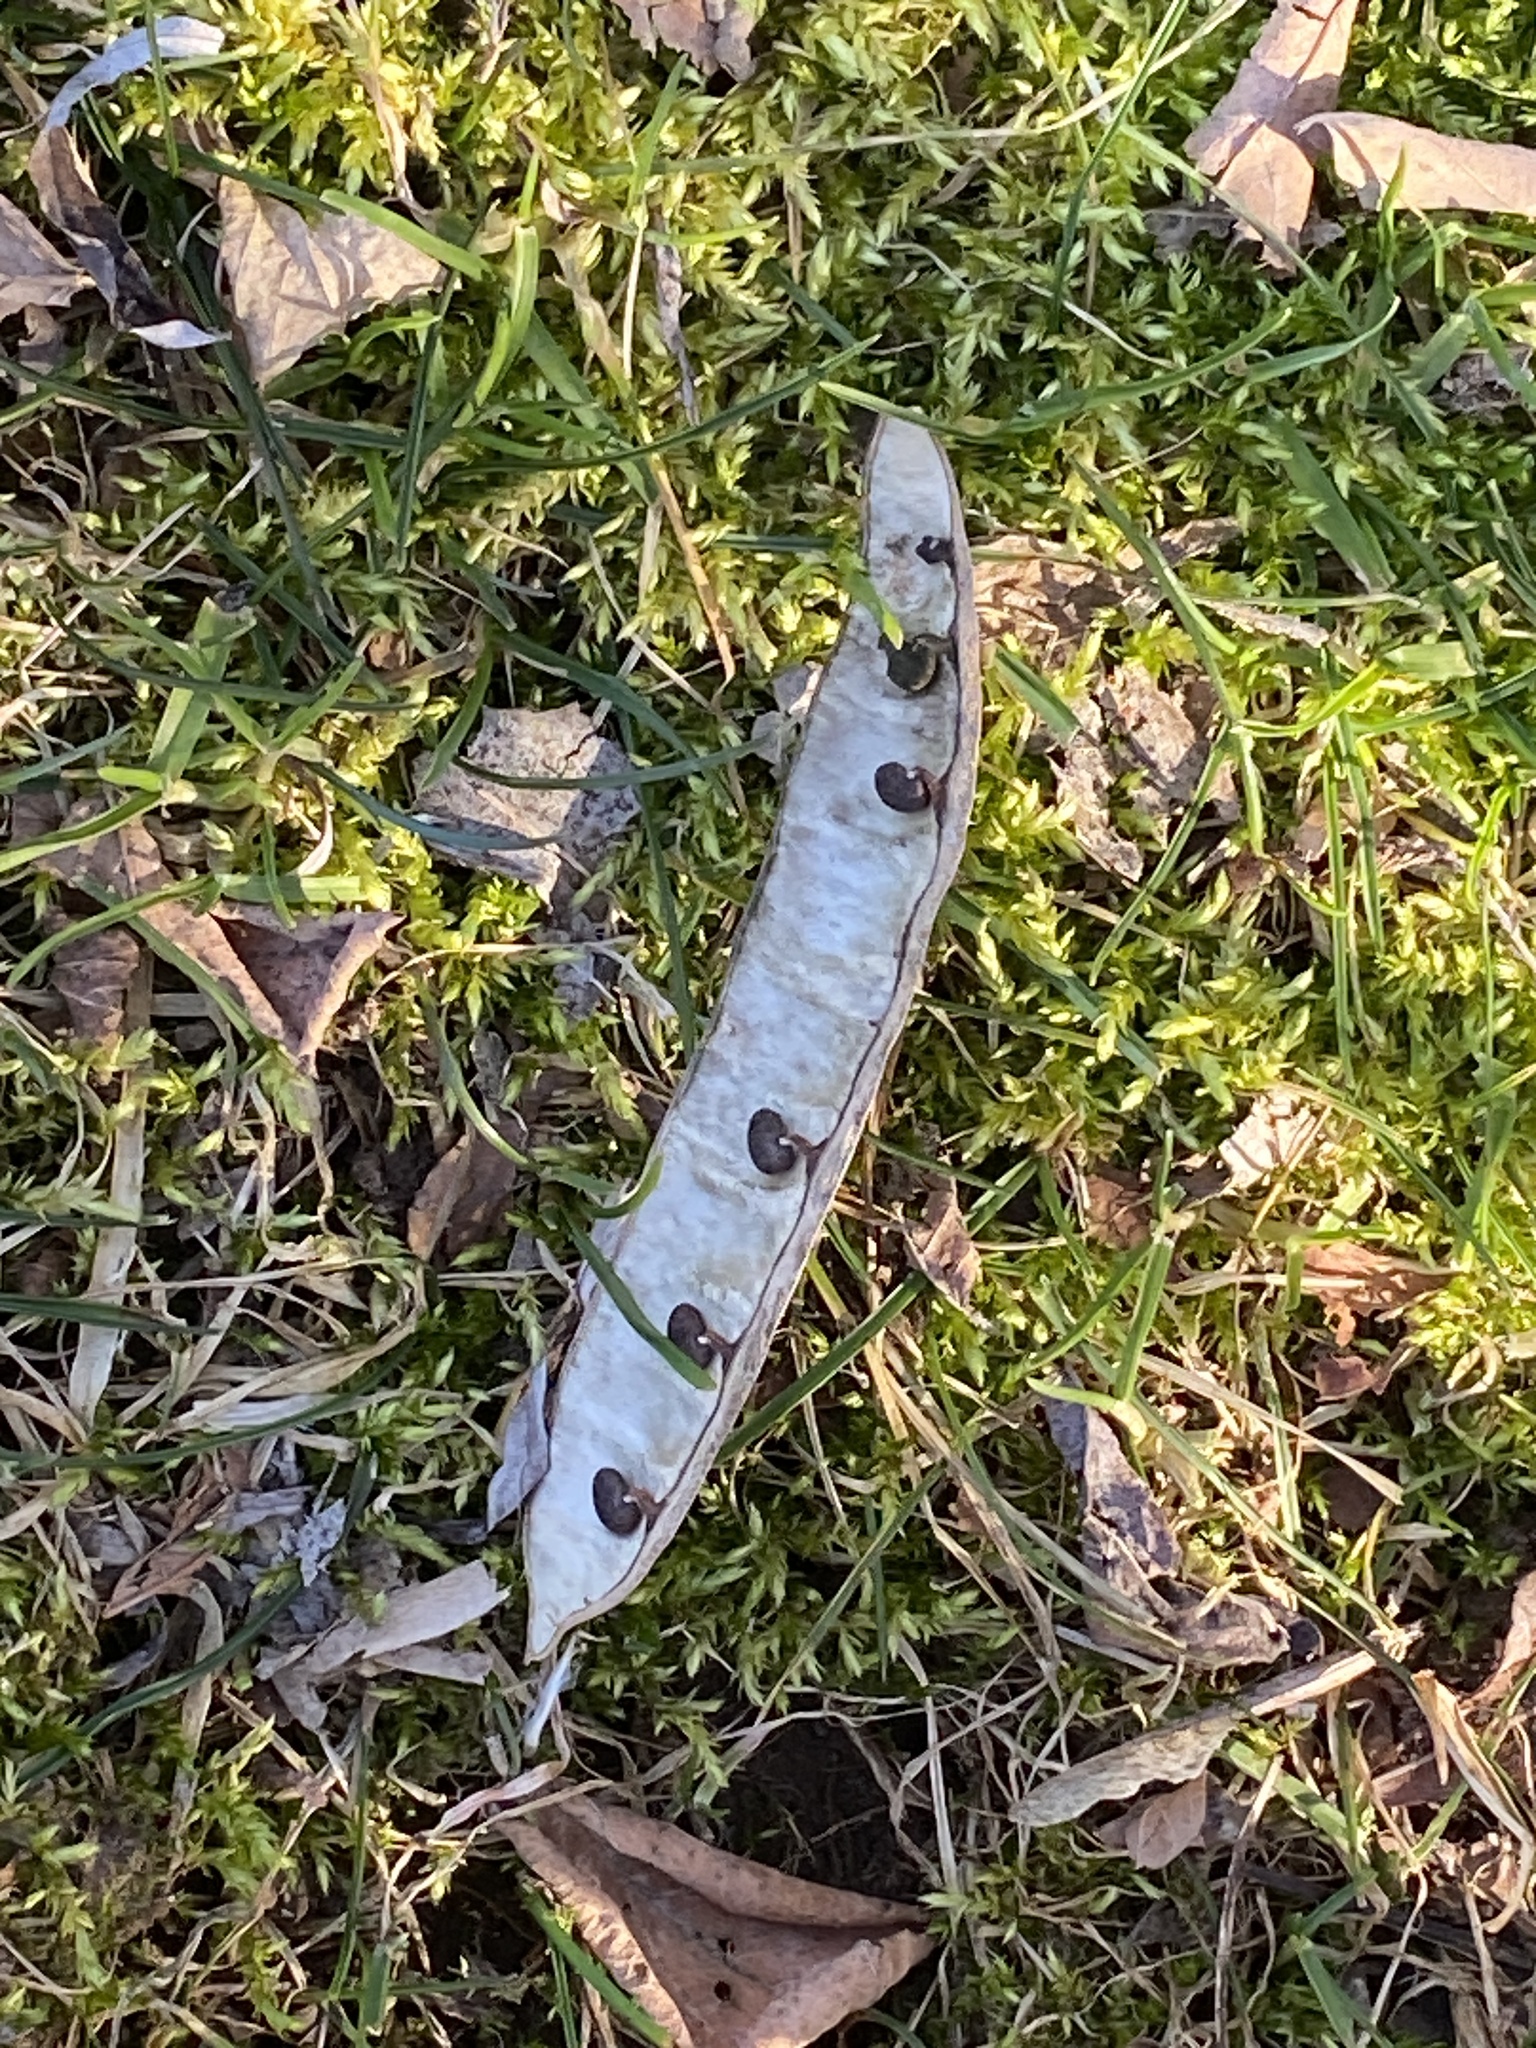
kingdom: Plantae
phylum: Tracheophyta
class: Magnoliopsida
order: Fabales
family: Fabaceae
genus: Robinia
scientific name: Robinia pseudoacacia
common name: Black locust
